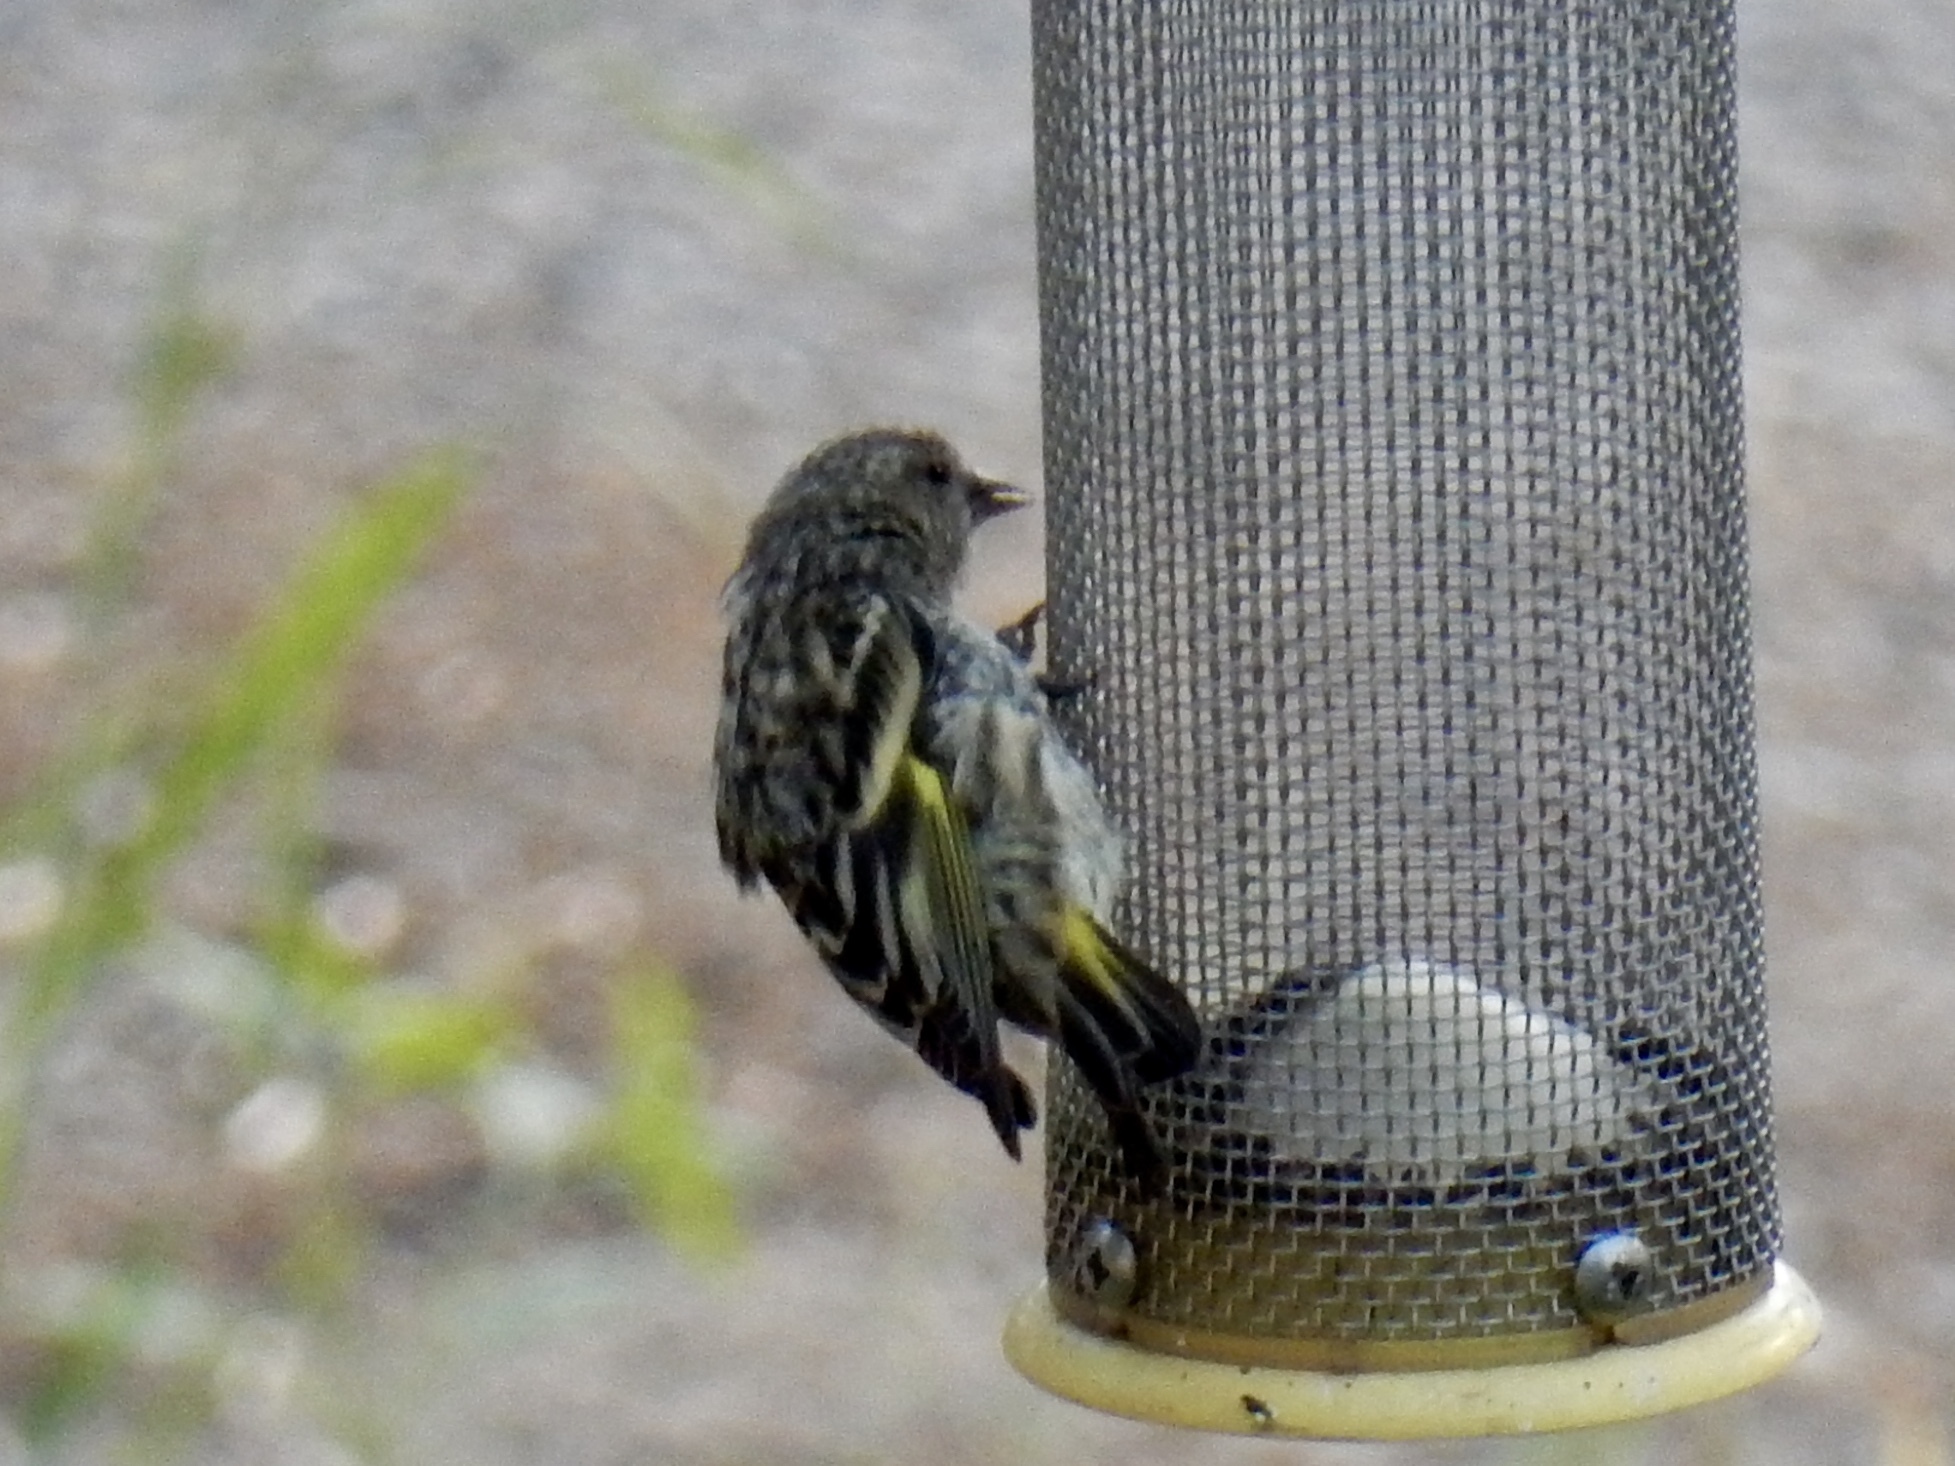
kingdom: Animalia
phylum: Chordata
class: Aves
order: Passeriformes
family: Fringillidae
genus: Spinus
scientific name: Spinus pinus
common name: Pine siskin
